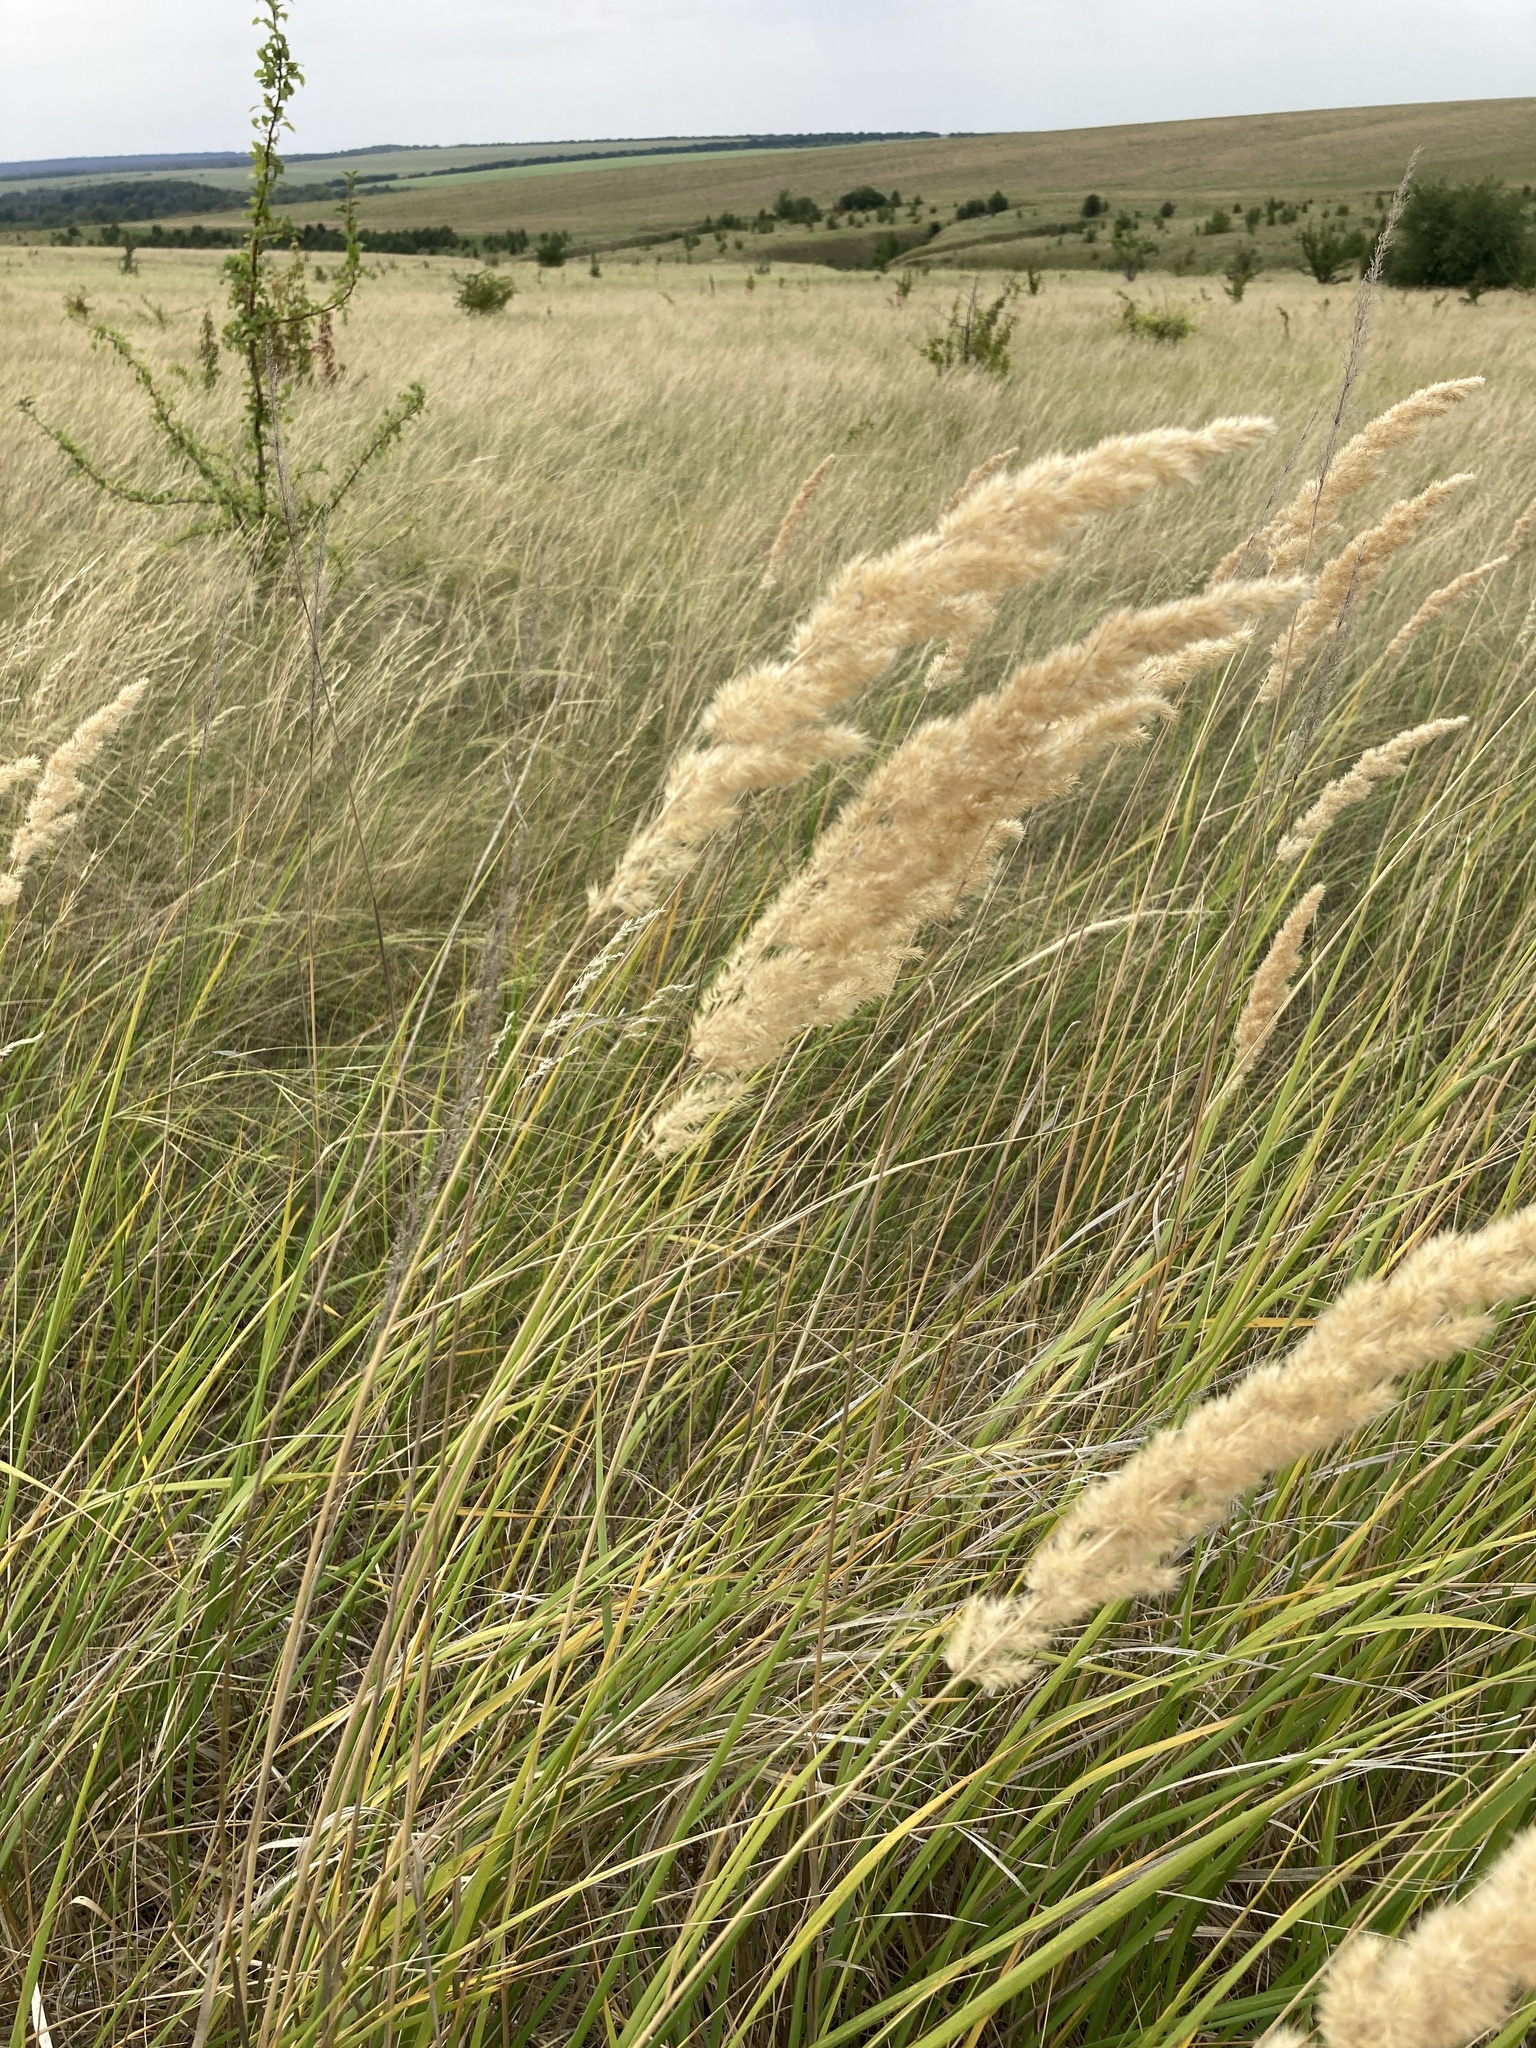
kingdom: Plantae
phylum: Tracheophyta
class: Liliopsida
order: Poales
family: Poaceae
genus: Calamagrostis
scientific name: Calamagrostis epigejos
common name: Wood small-reed
